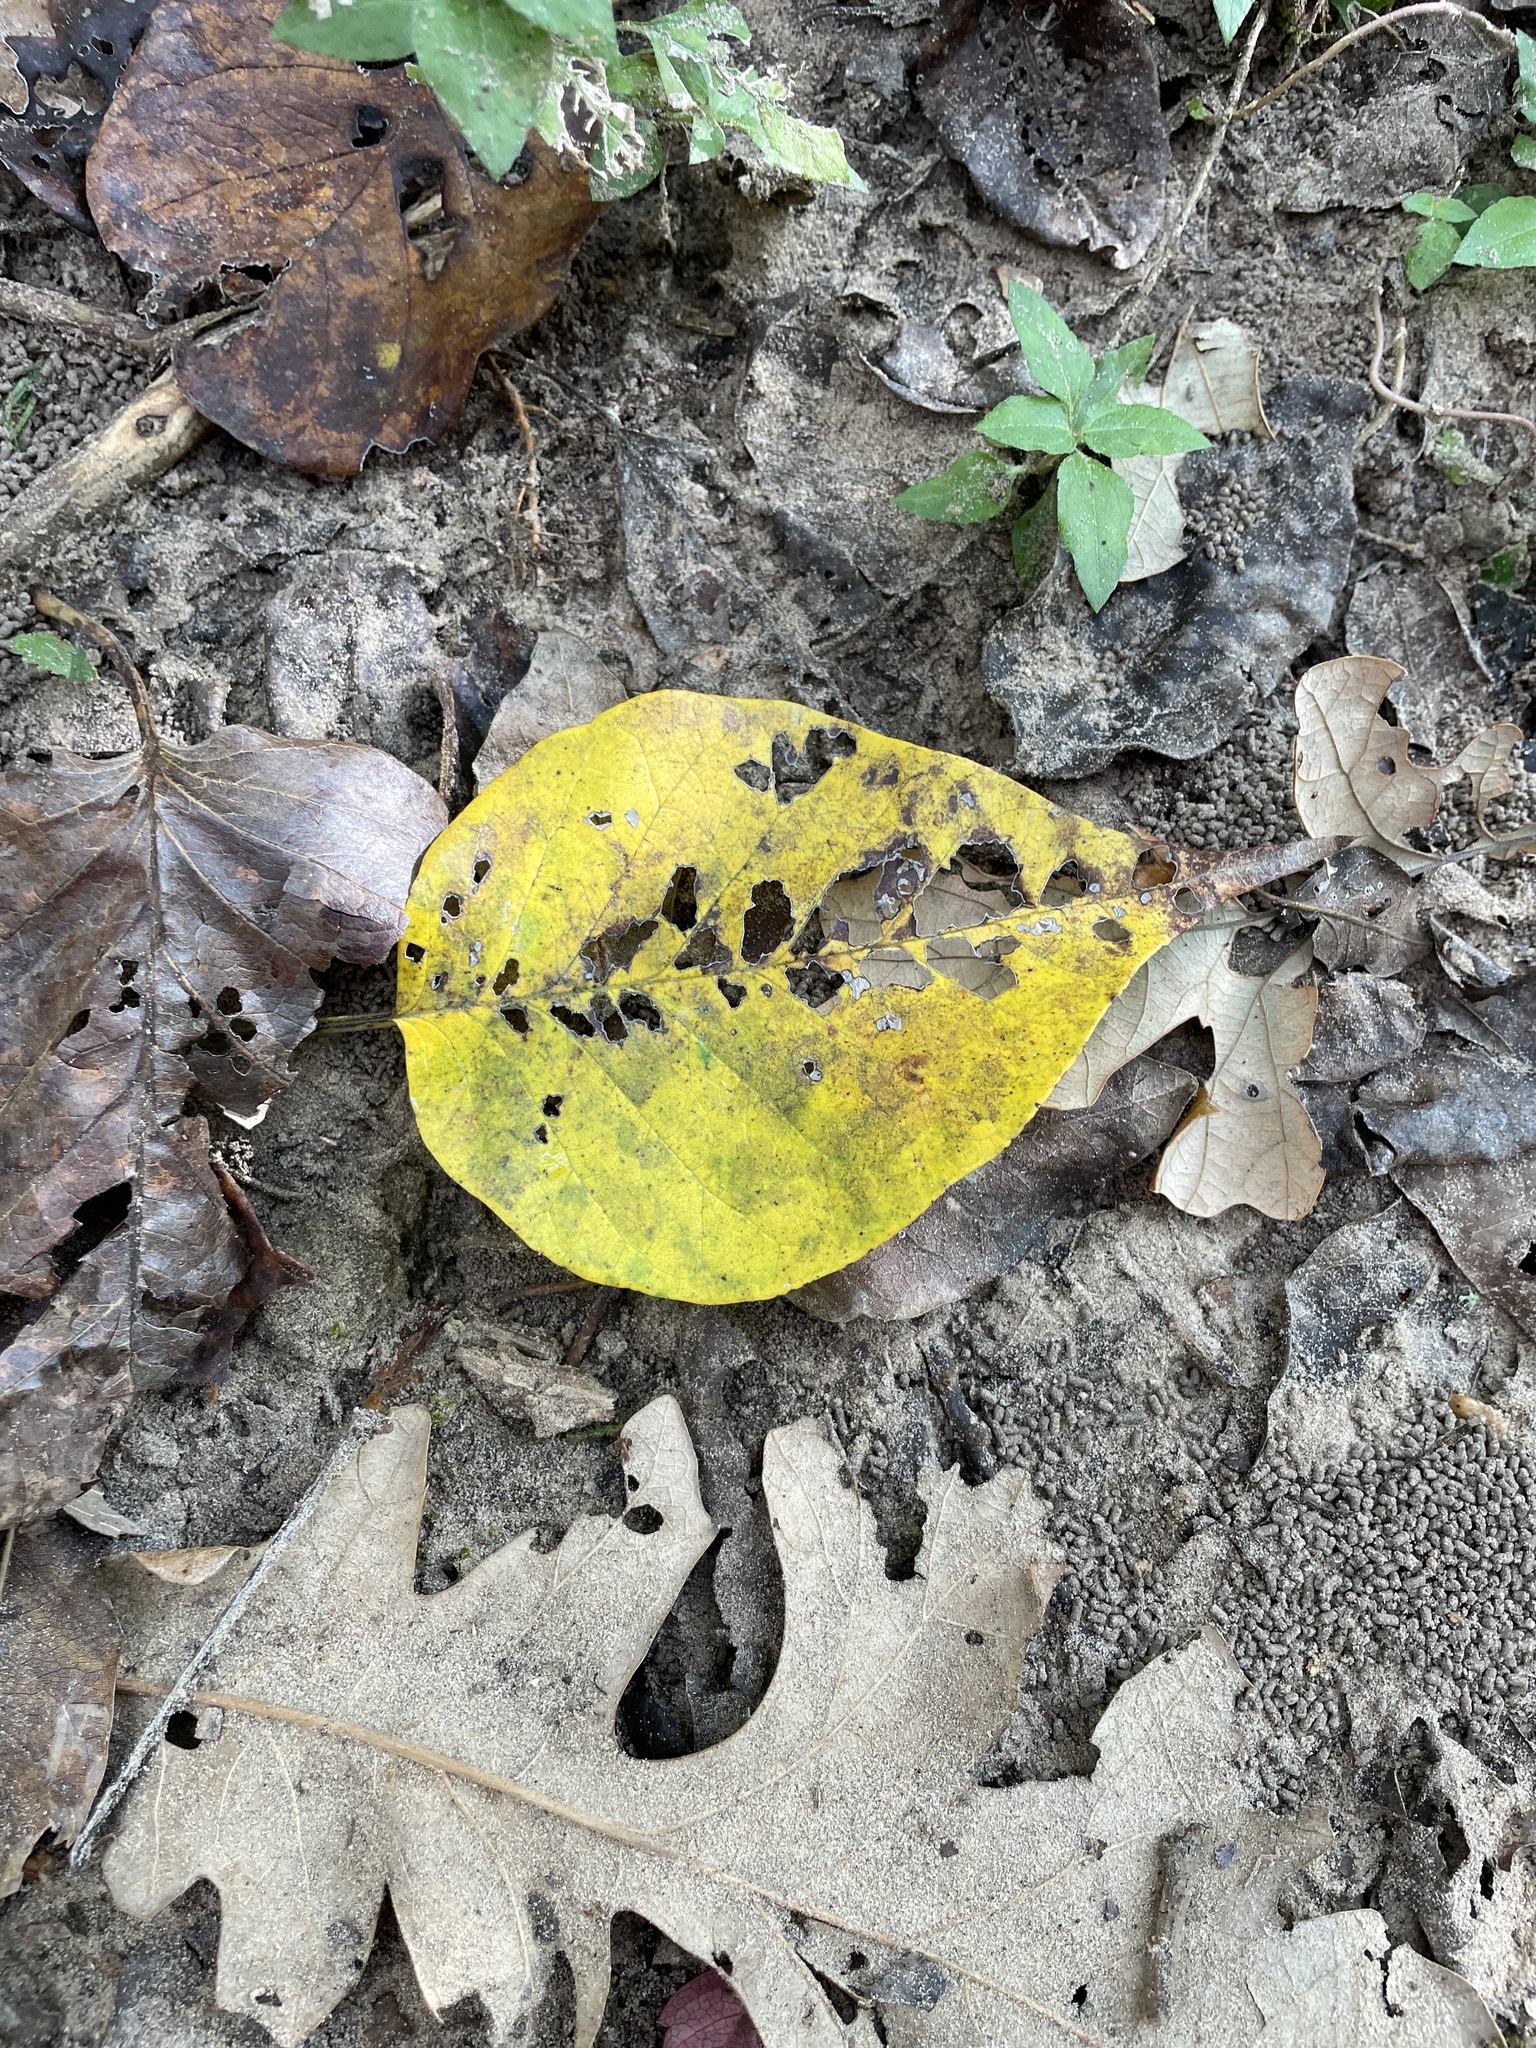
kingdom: Plantae
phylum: Tracheophyta
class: Magnoliopsida
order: Rosales
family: Moraceae
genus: Maclura
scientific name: Maclura pomifera
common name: Osage-orange
